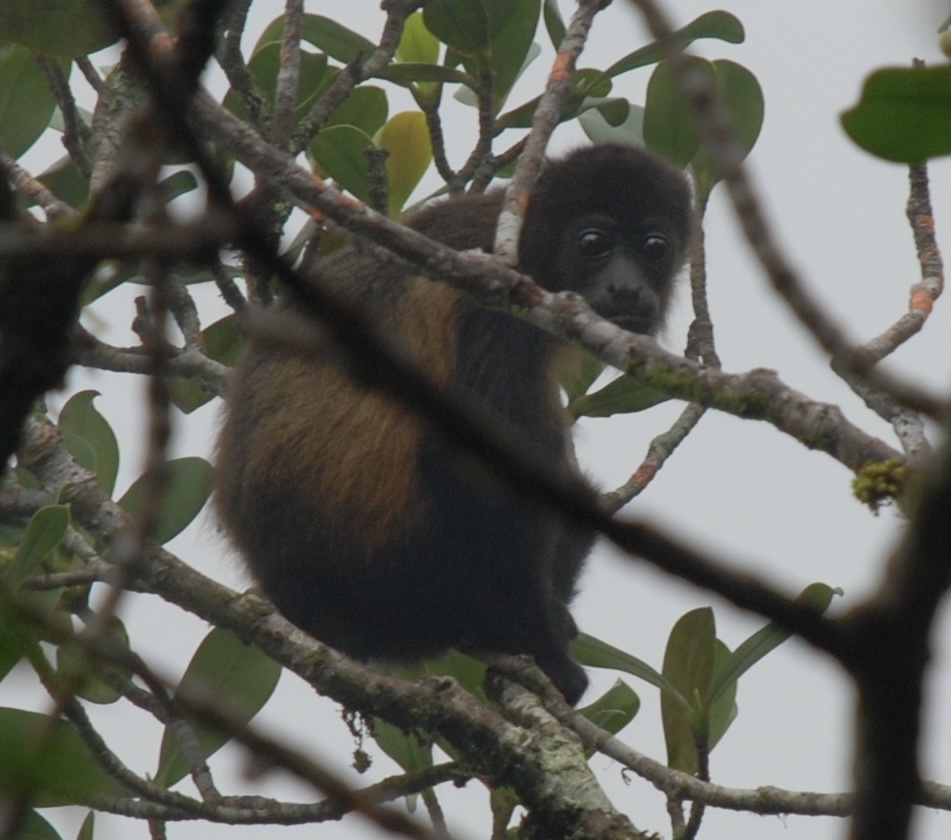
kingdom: Animalia
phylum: Chordata
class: Mammalia
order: Primates
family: Atelidae
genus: Alouatta
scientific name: Alouatta palliata
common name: Mantled howler
